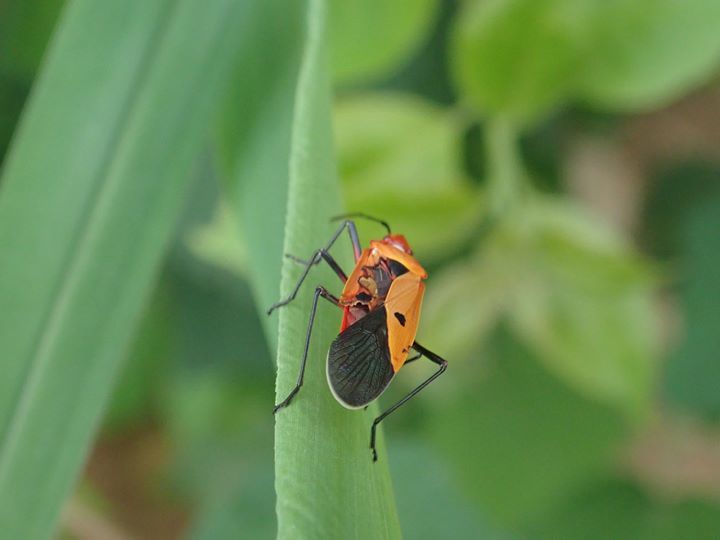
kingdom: Animalia
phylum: Arthropoda
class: Insecta
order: Hemiptera
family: Pyrrhocoridae
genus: Dysdercus
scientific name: Dysdercus cingulatus
